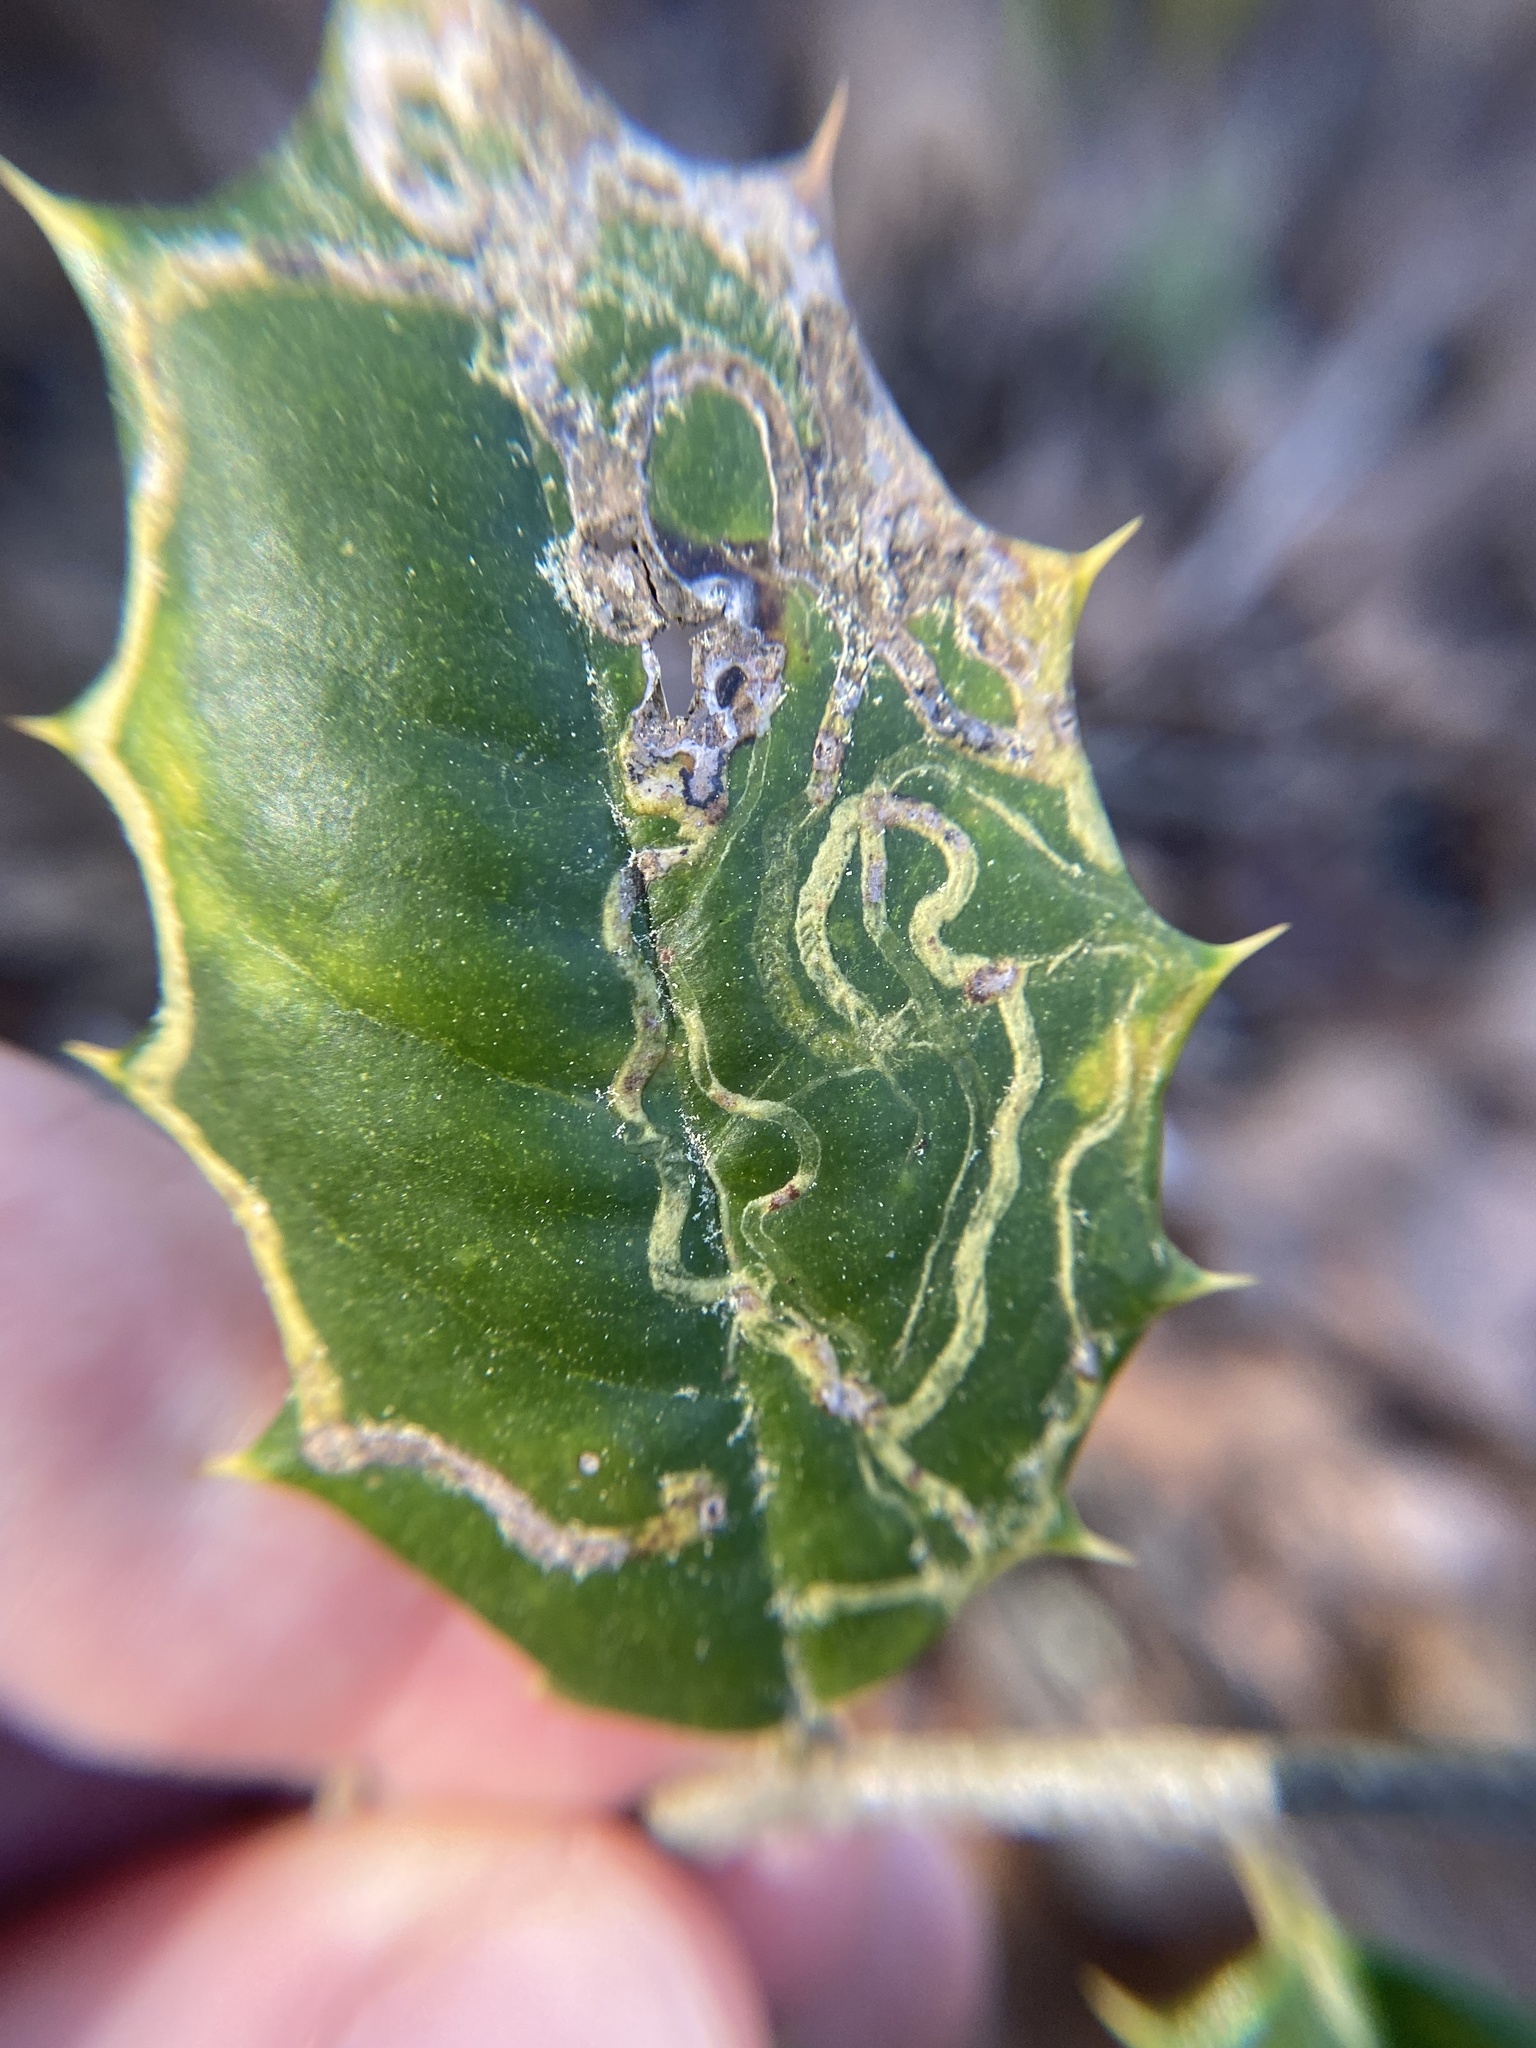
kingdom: Animalia
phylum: Arthropoda
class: Insecta
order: Diptera
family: Agromyzidae
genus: Phytomyza
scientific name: Phytomyza opacae
